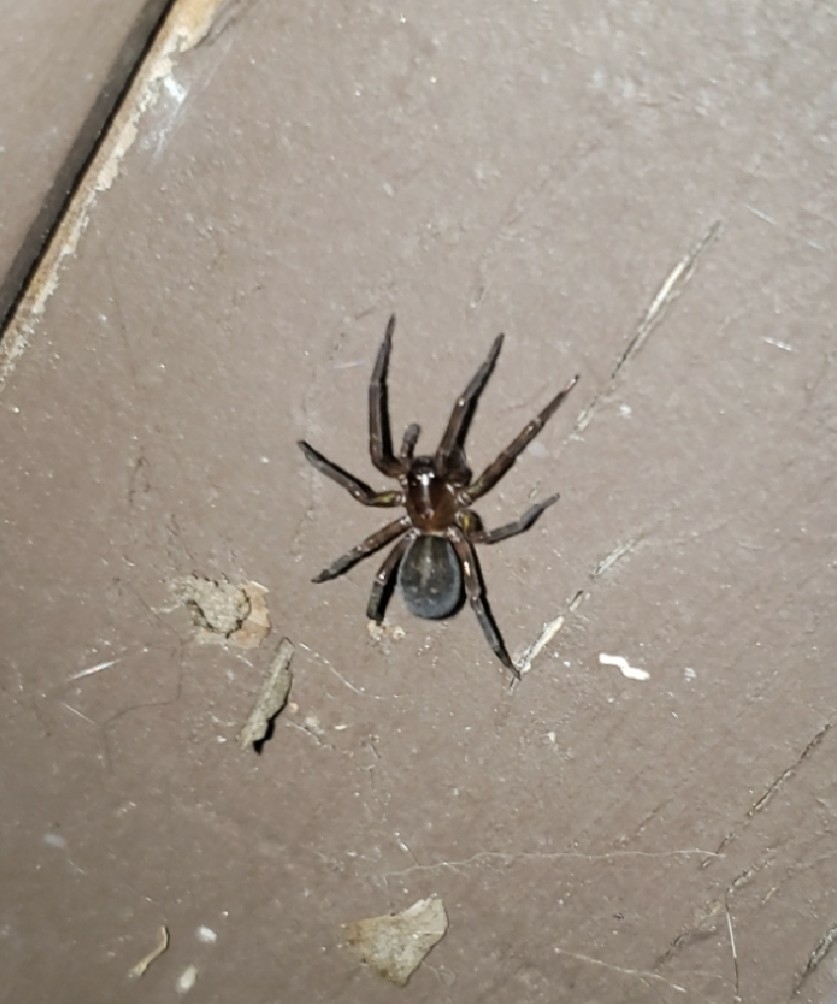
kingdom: Animalia
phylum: Arthropoda
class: Arachnida
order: Araneae
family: Amaurobiidae
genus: Amaurobius
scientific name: Amaurobius ferox
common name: Black laceweaver
